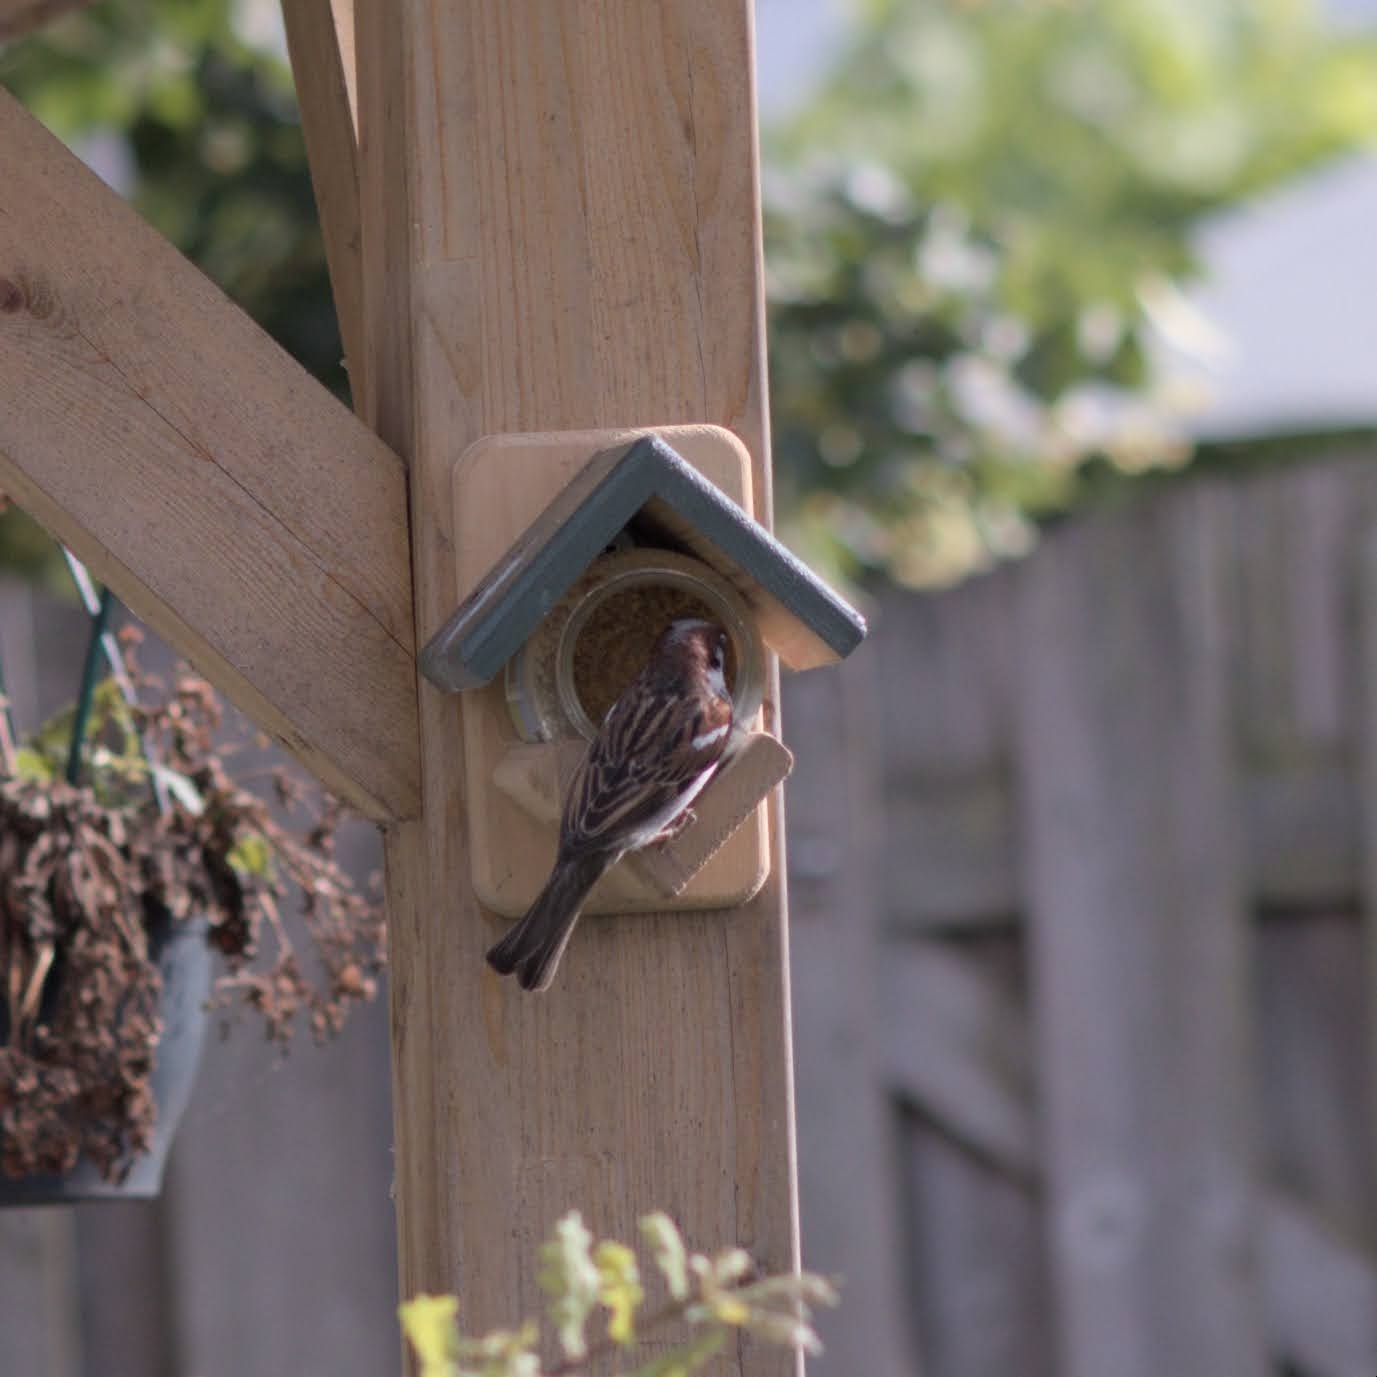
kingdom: Animalia
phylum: Chordata
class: Aves
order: Passeriformes
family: Passeridae
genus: Passer
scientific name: Passer domesticus
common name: House sparrow
